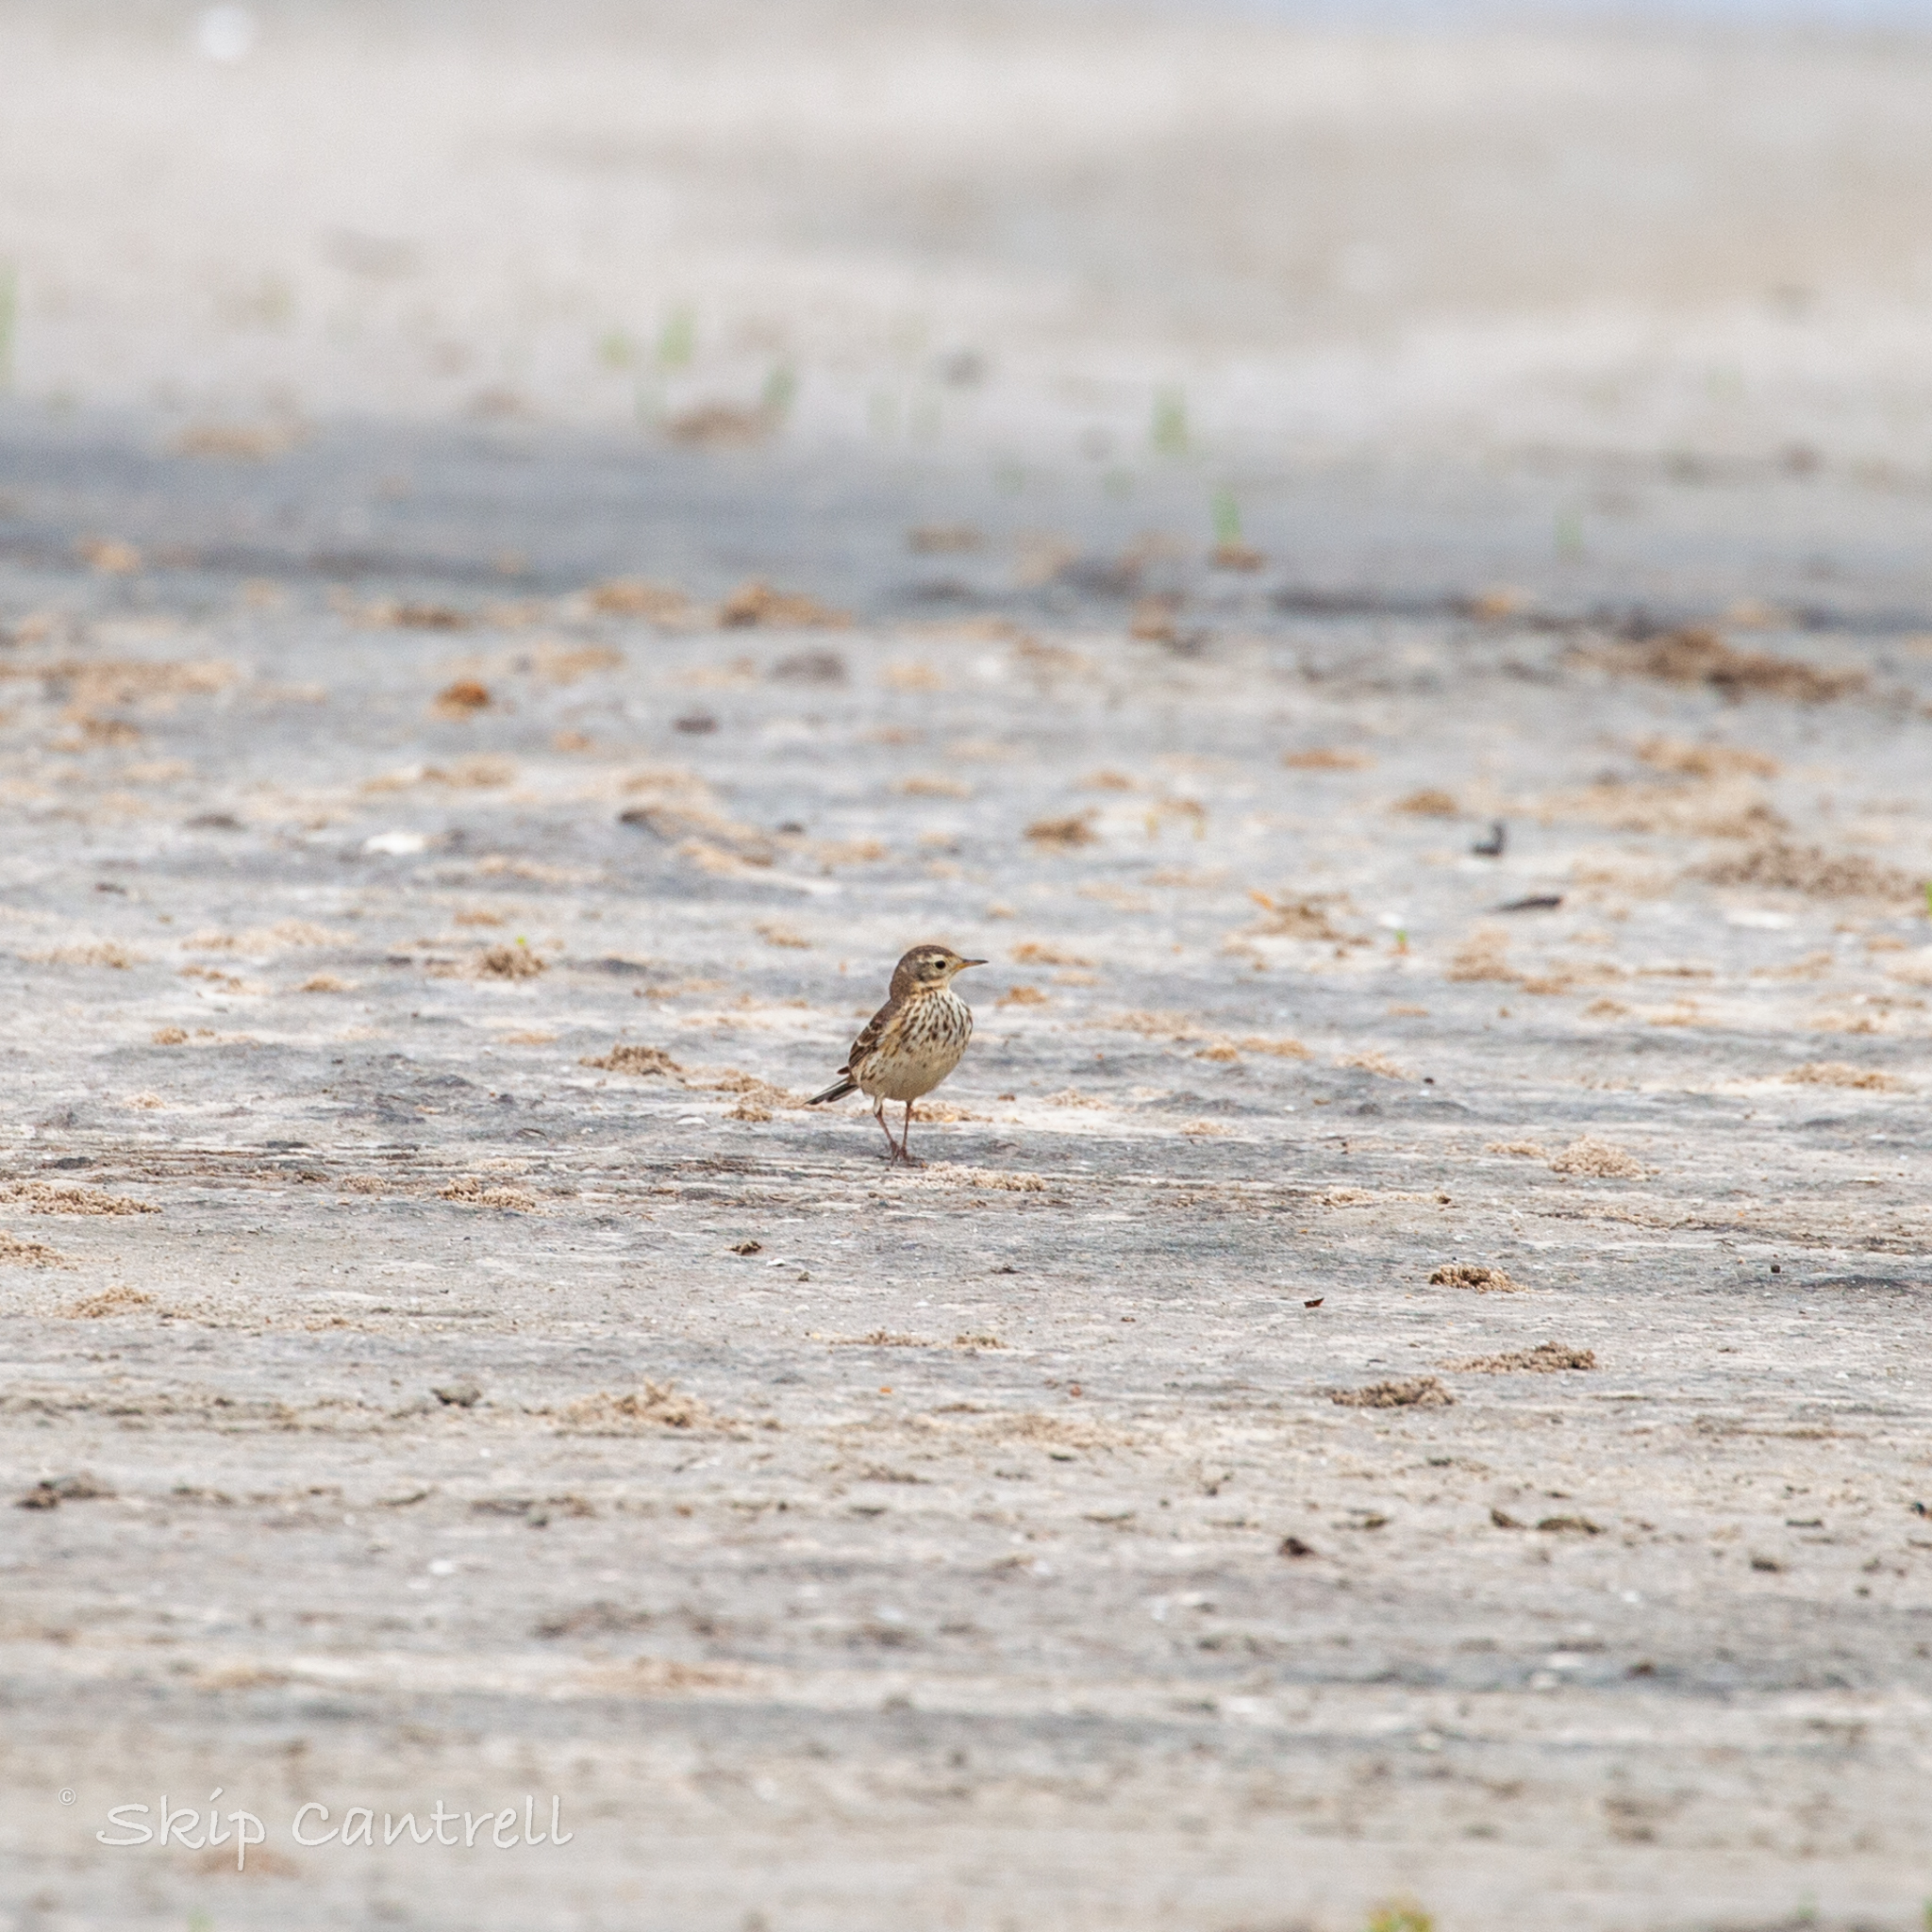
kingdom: Animalia
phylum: Chordata
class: Aves
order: Passeriformes
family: Motacillidae
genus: Anthus
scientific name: Anthus rubescens
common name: Buff-bellied pipit
